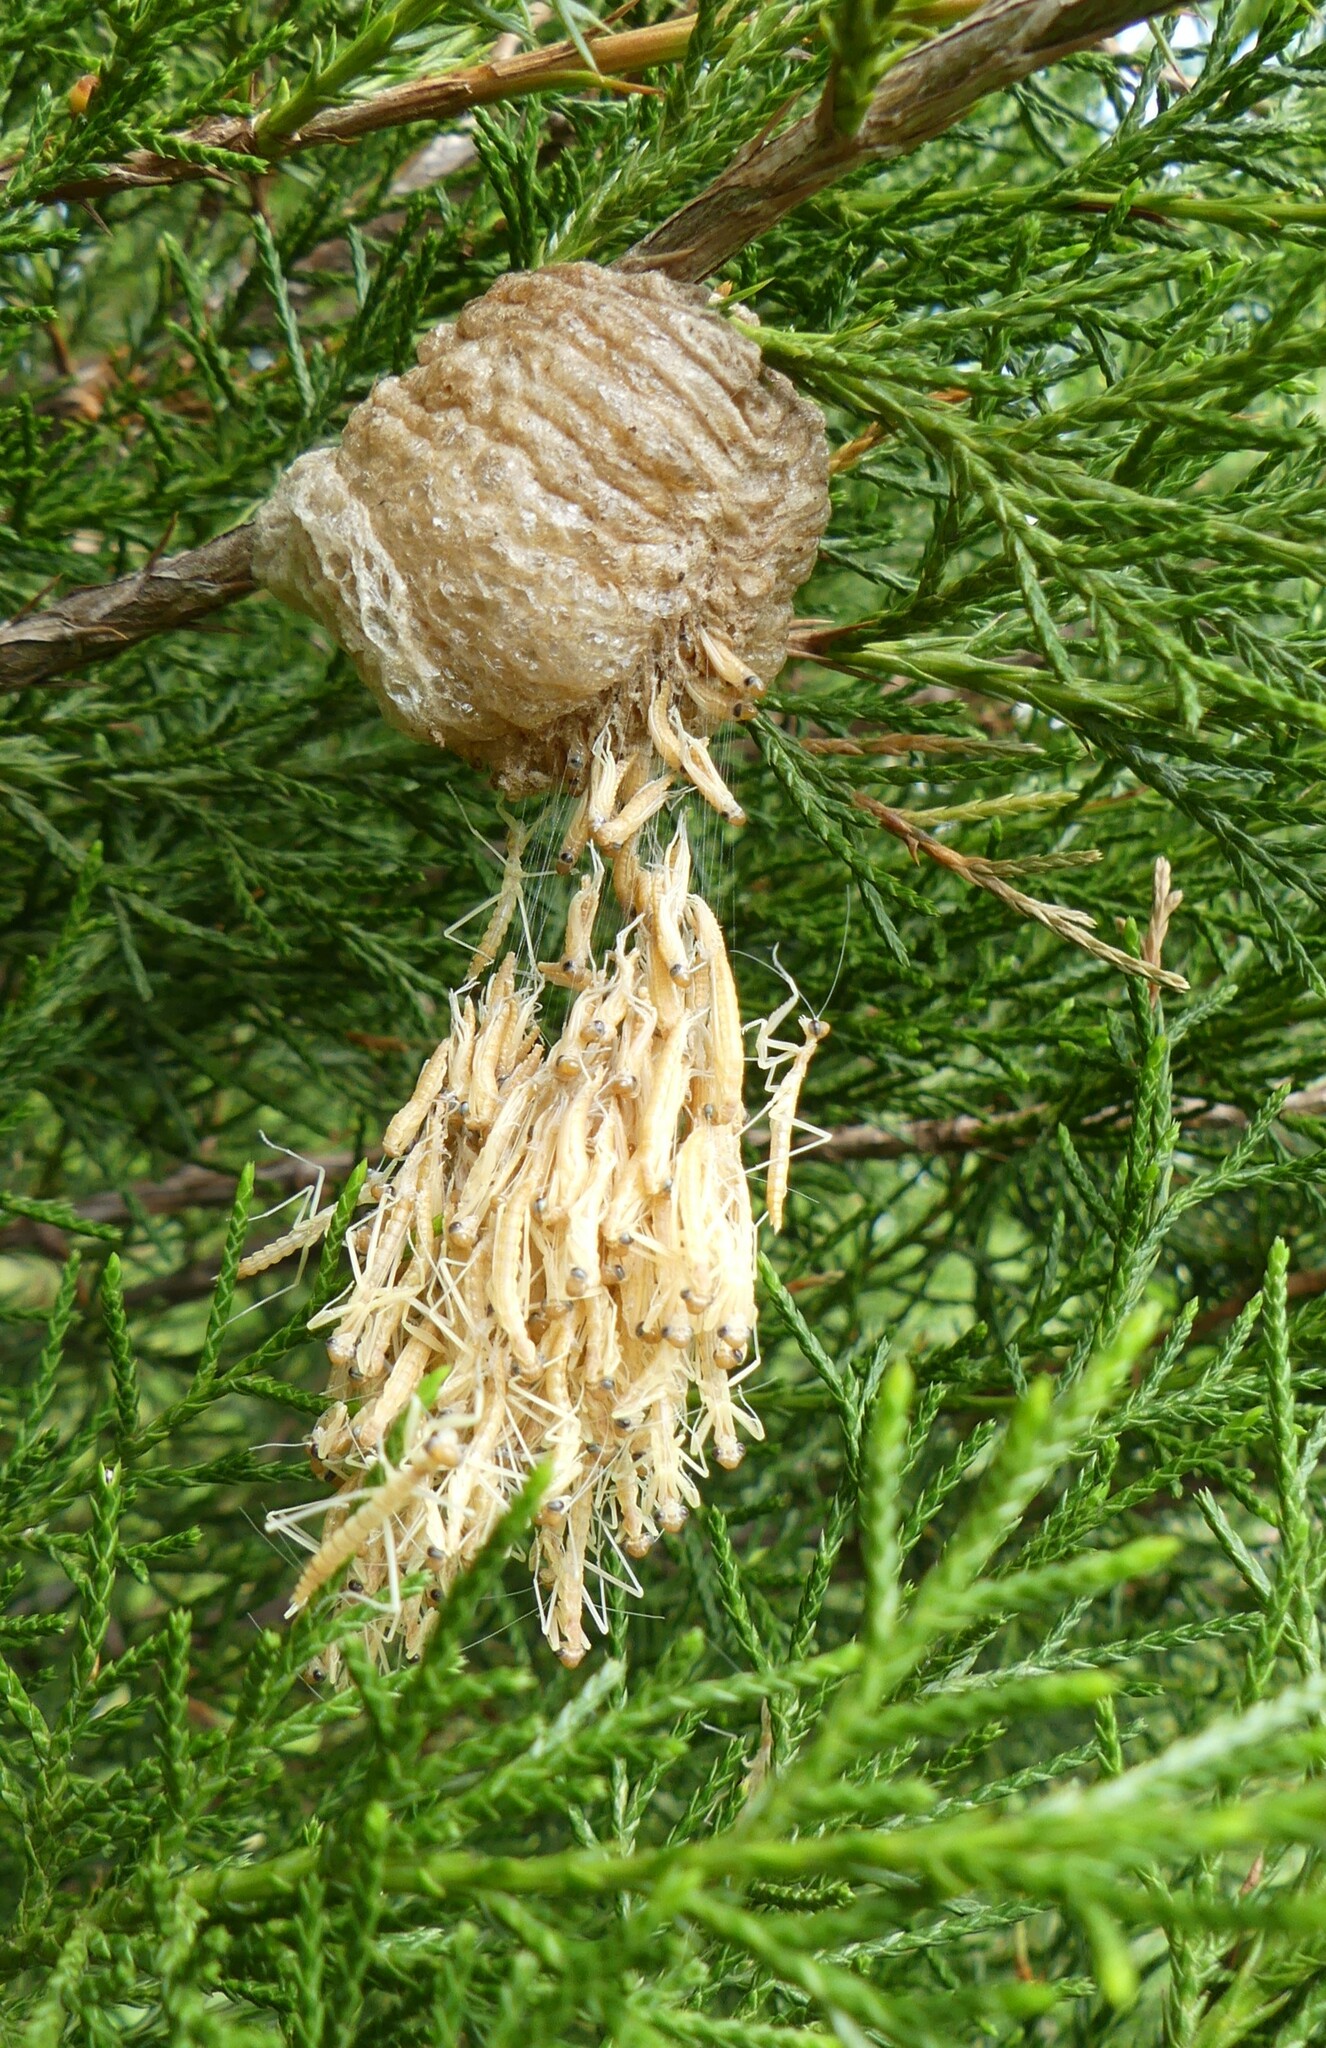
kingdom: Animalia
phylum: Arthropoda
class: Insecta
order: Mantodea
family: Mantidae
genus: Tenodera
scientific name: Tenodera sinensis
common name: Chinese mantis
